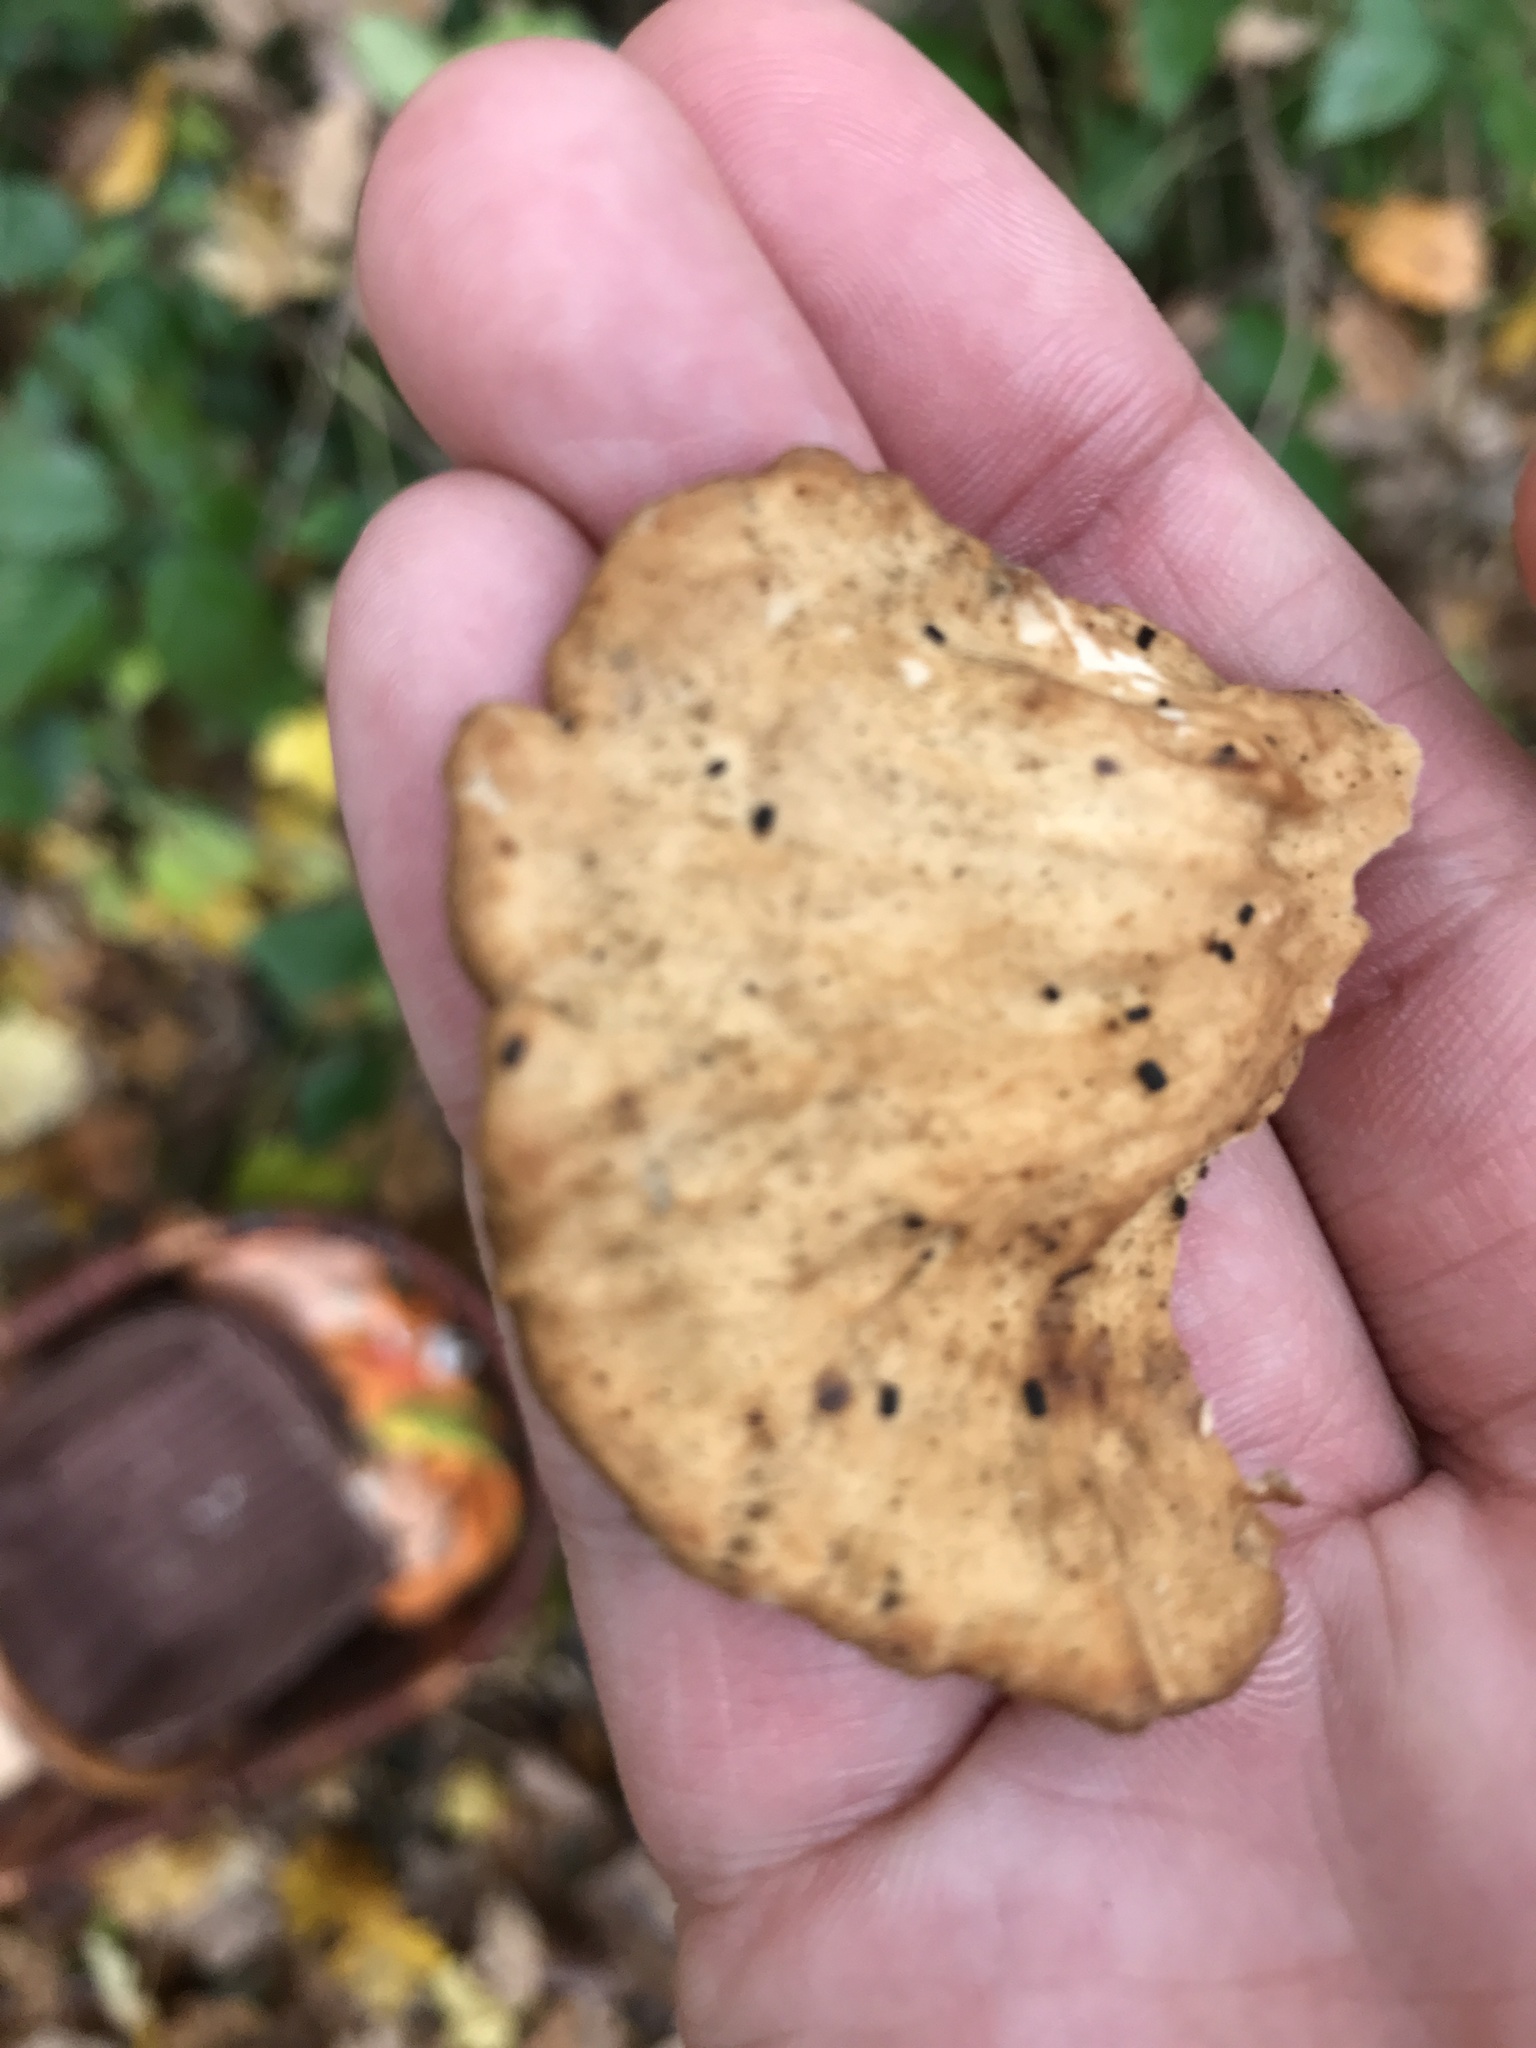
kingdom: Fungi
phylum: Basidiomycota
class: Agaricomycetes
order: Polyporales
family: Laetiporaceae
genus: Laetiporus
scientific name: Laetiporus sulphureus
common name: Chicken of the woods
